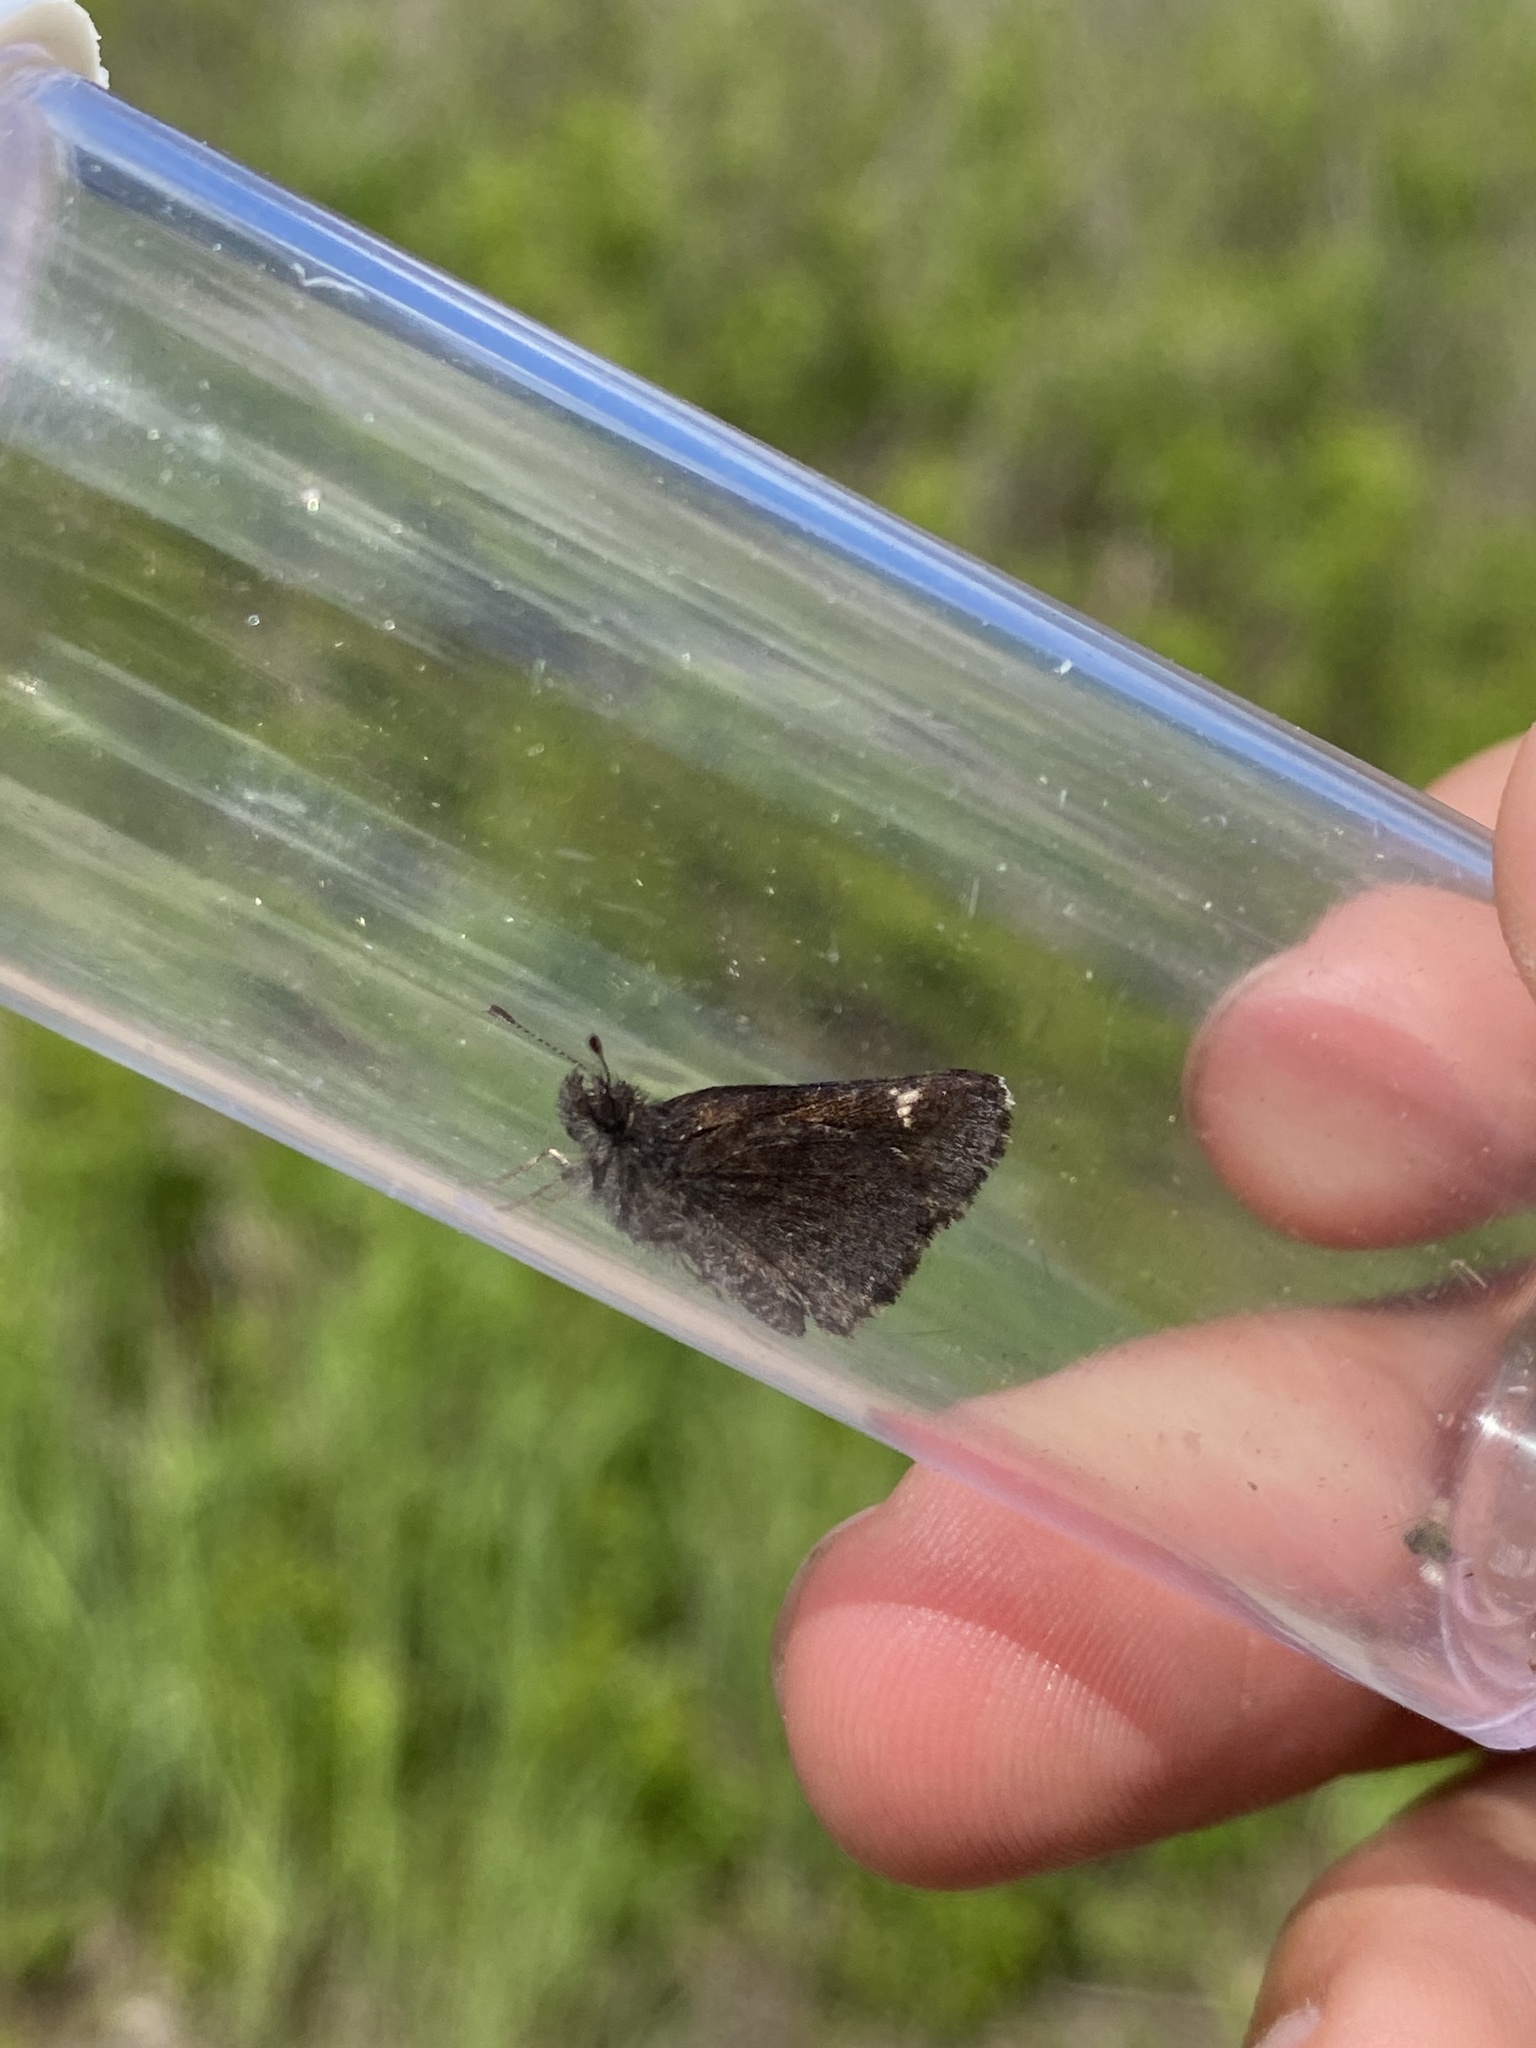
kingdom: Animalia
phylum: Arthropoda
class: Insecta
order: Lepidoptera
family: Hesperiidae
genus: Mastor
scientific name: Mastor vialis
